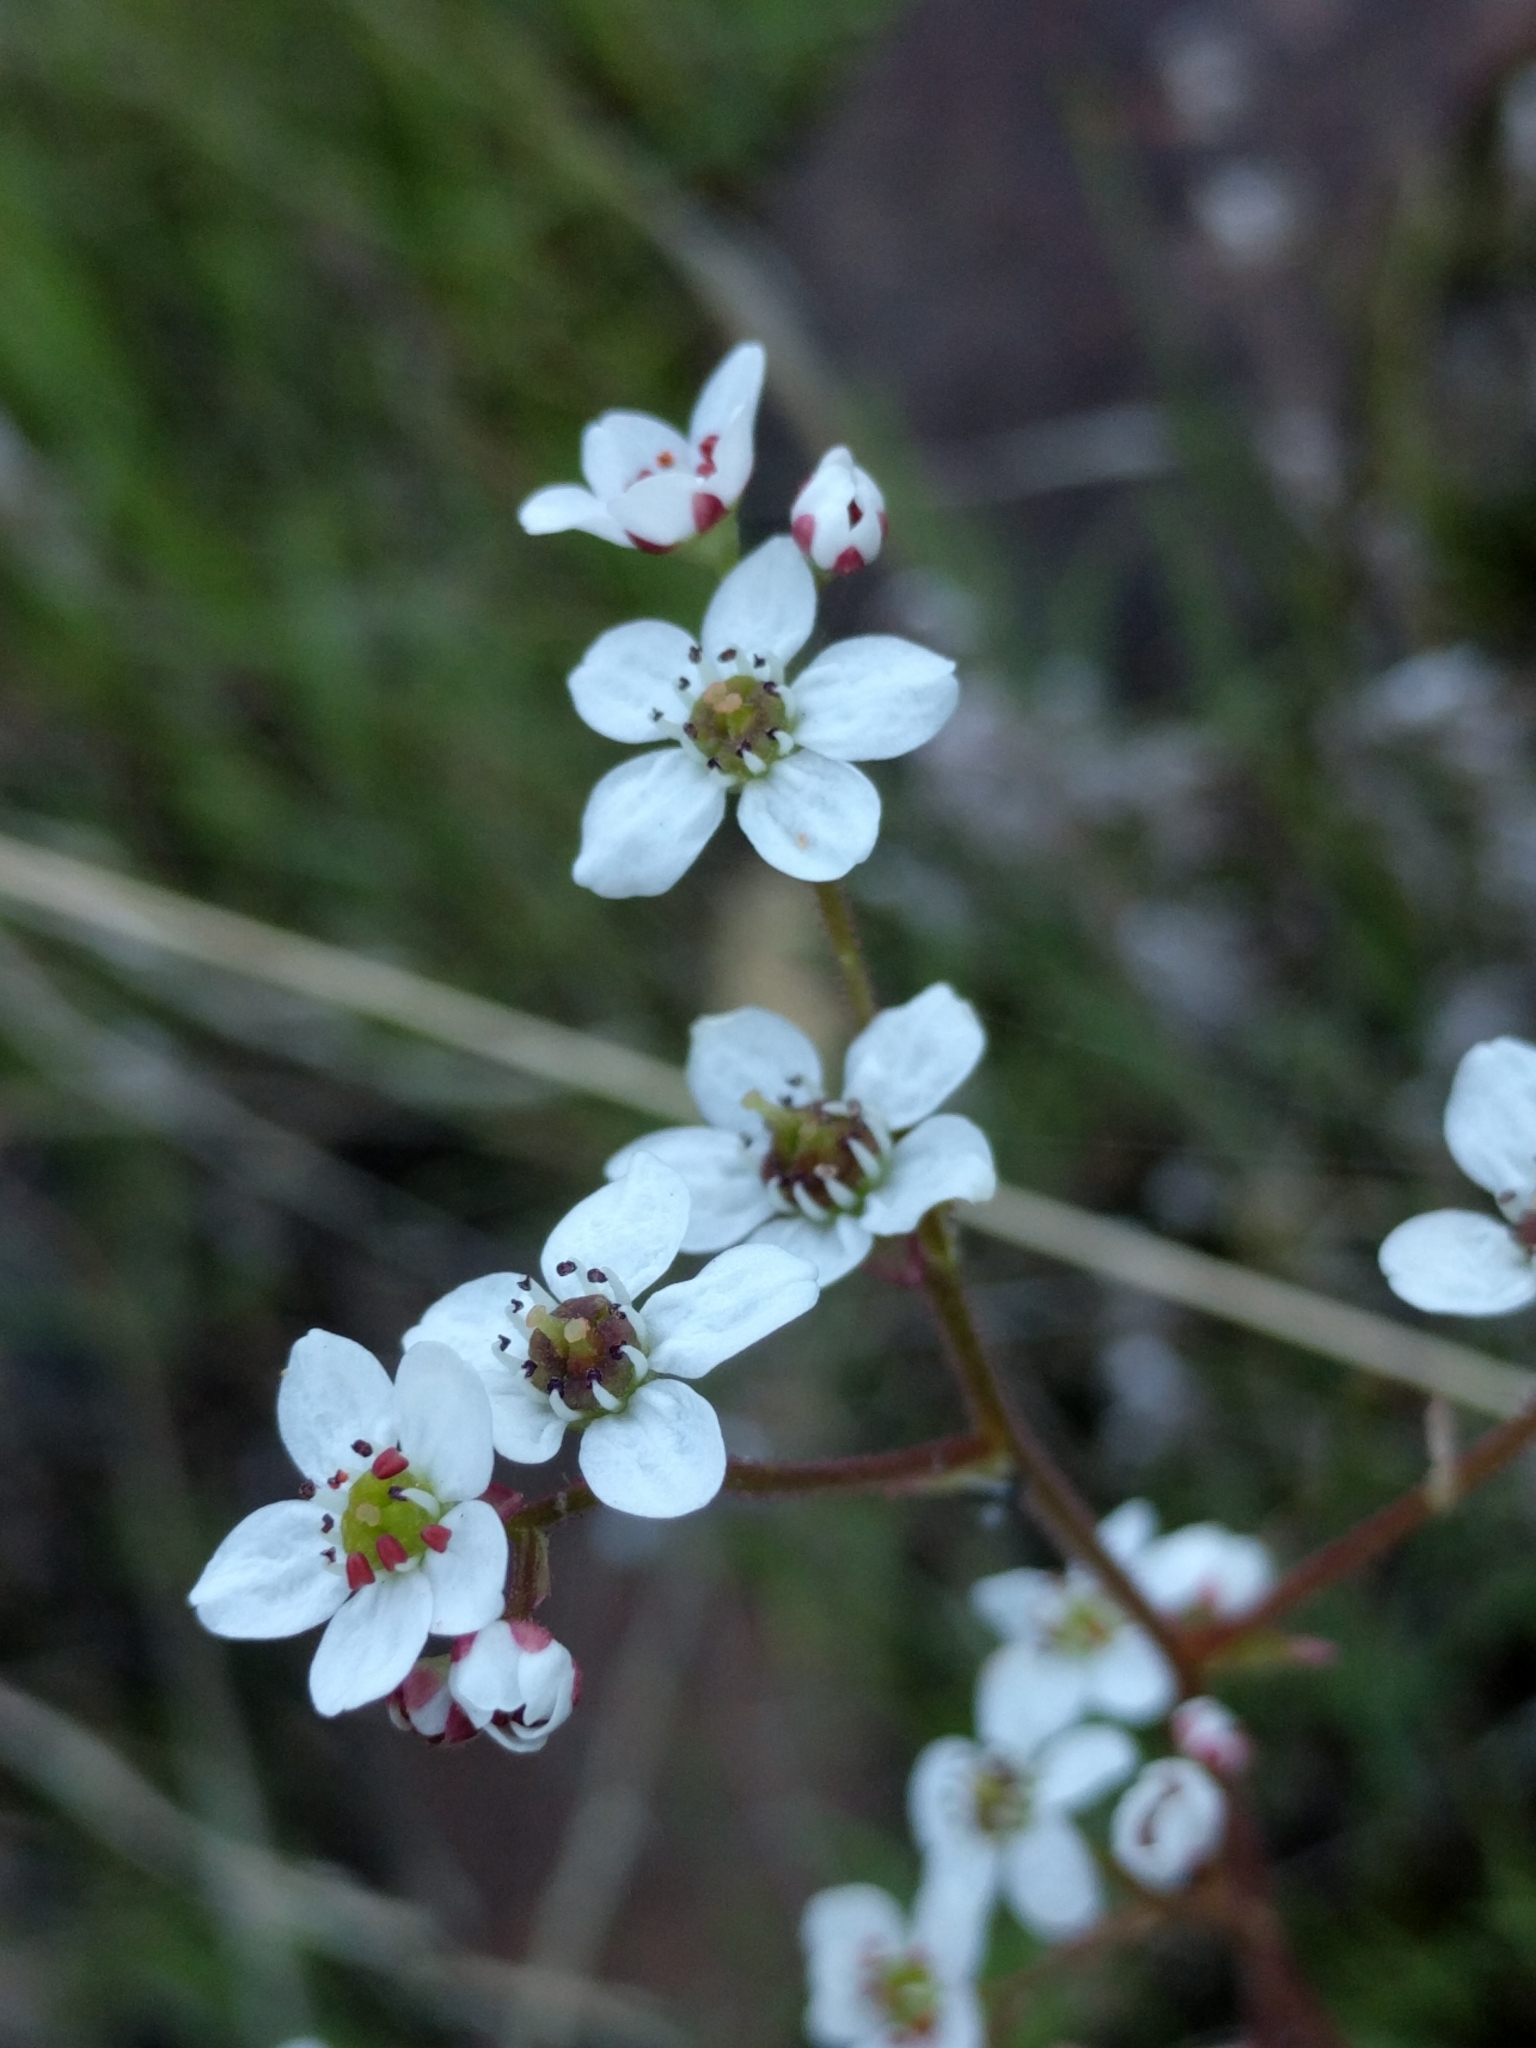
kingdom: Plantae
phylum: Tracheophyta
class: Magnoliopsida
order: Saxifragales
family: Saxifragaceae
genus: Micranthes
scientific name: Micranthes californica
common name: California saxifrage
